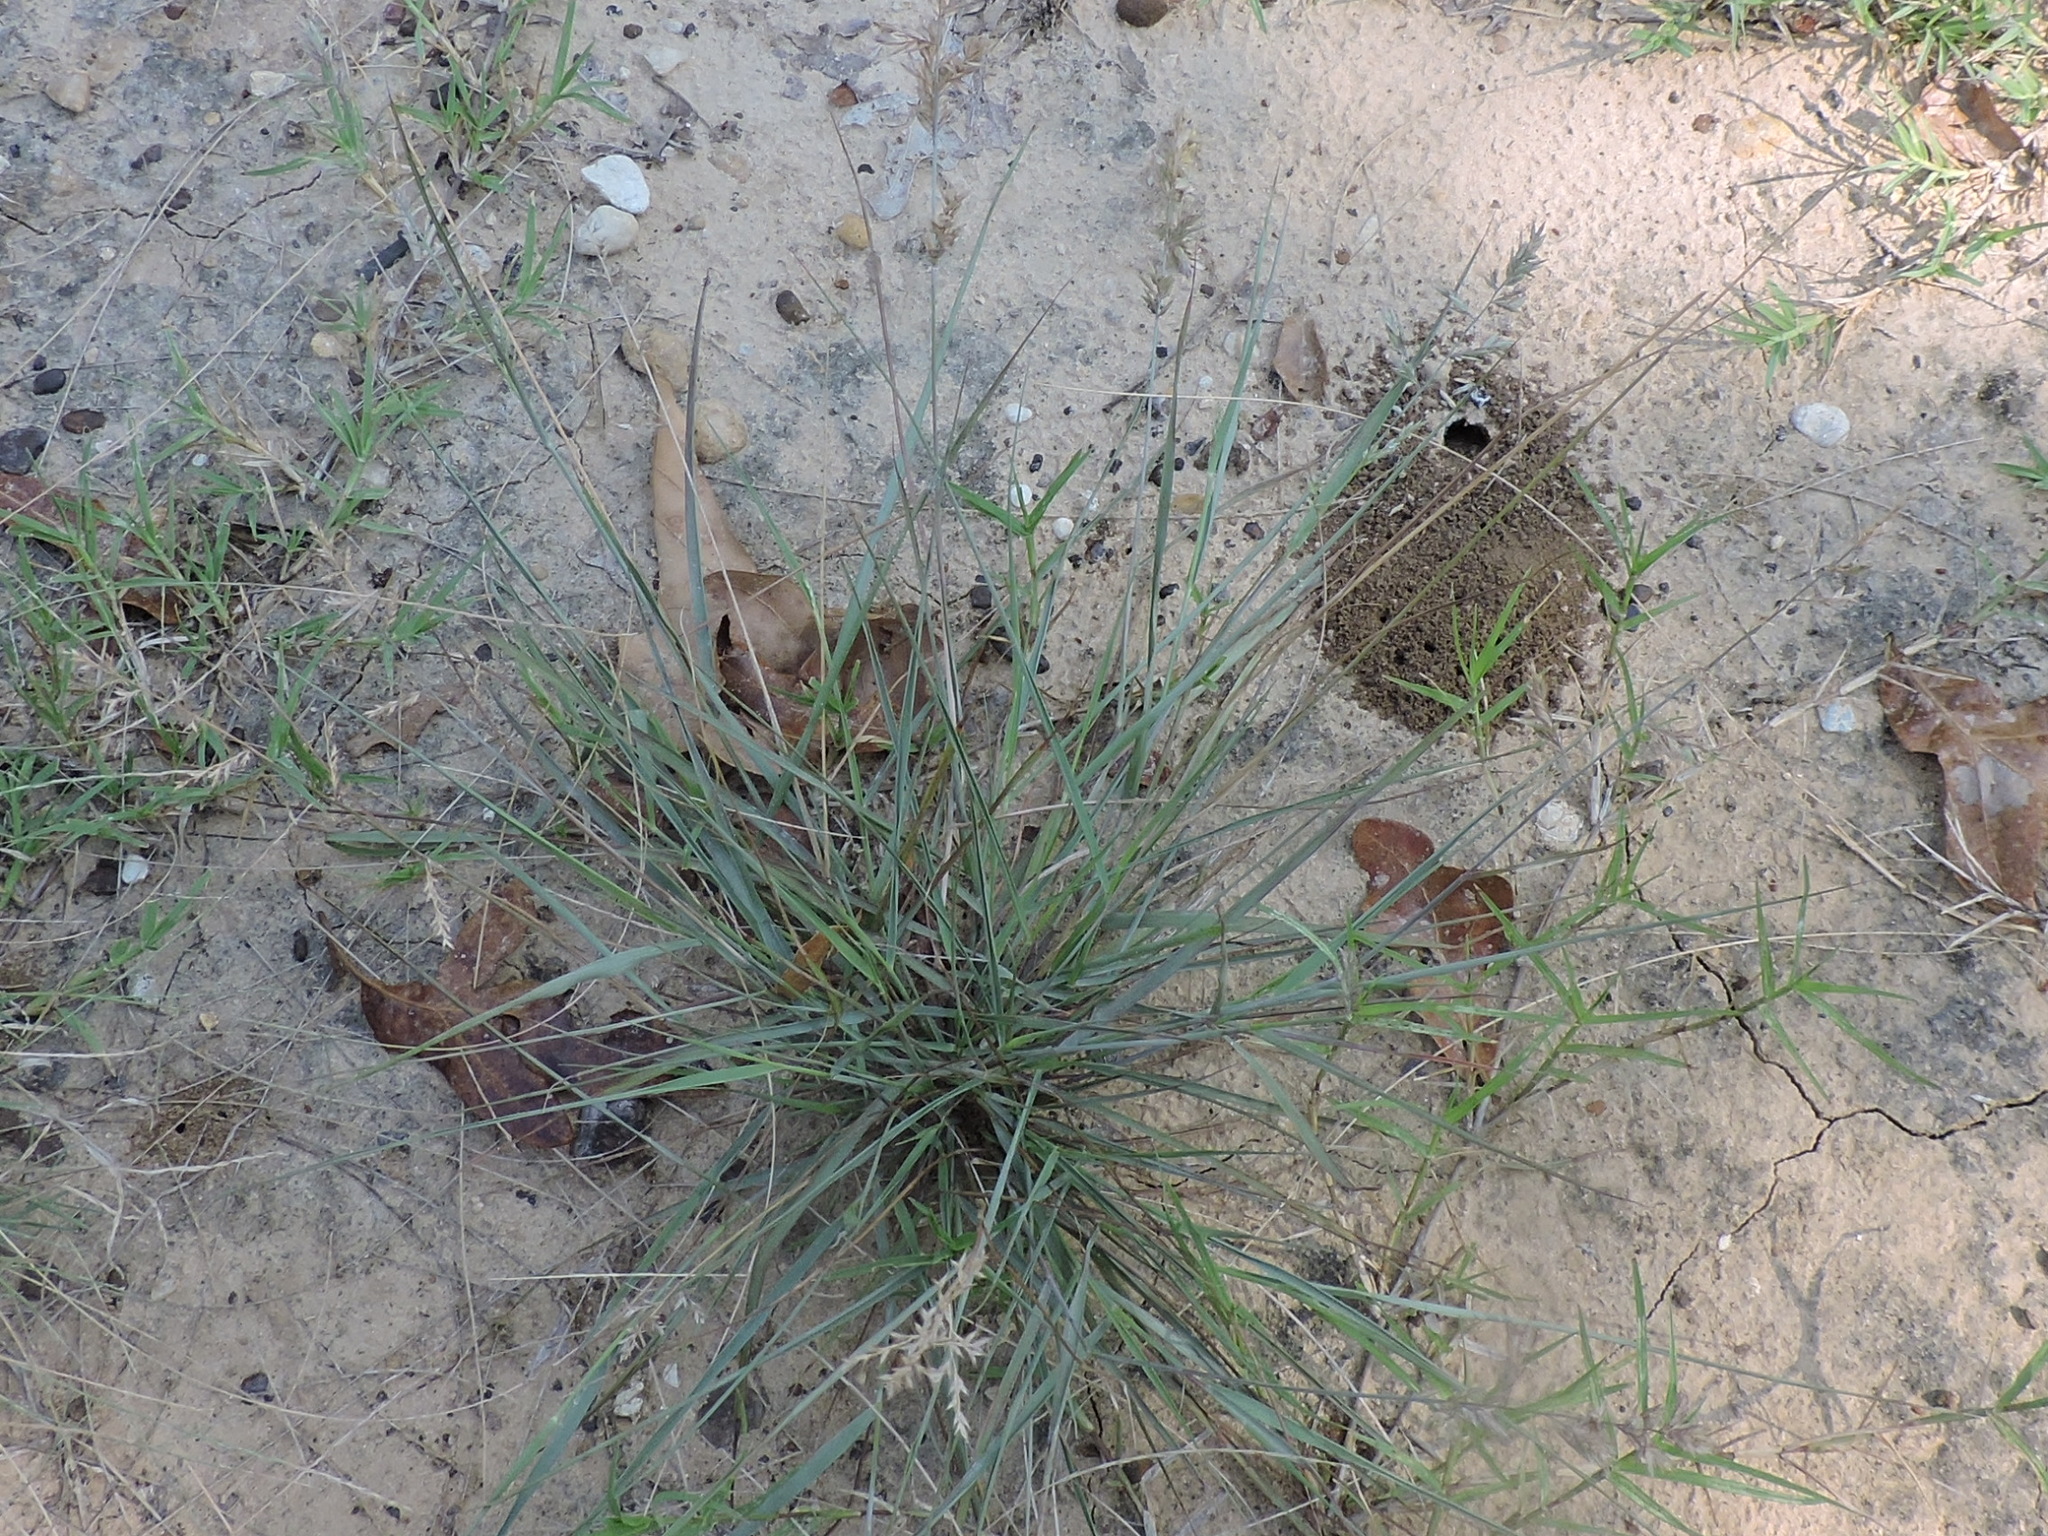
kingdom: Plantae
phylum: Tracheophyta
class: Liliopsida
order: Poales
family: Poaceae
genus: Eragrostis
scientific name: Eragrostis secundiflora
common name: Red love grass
